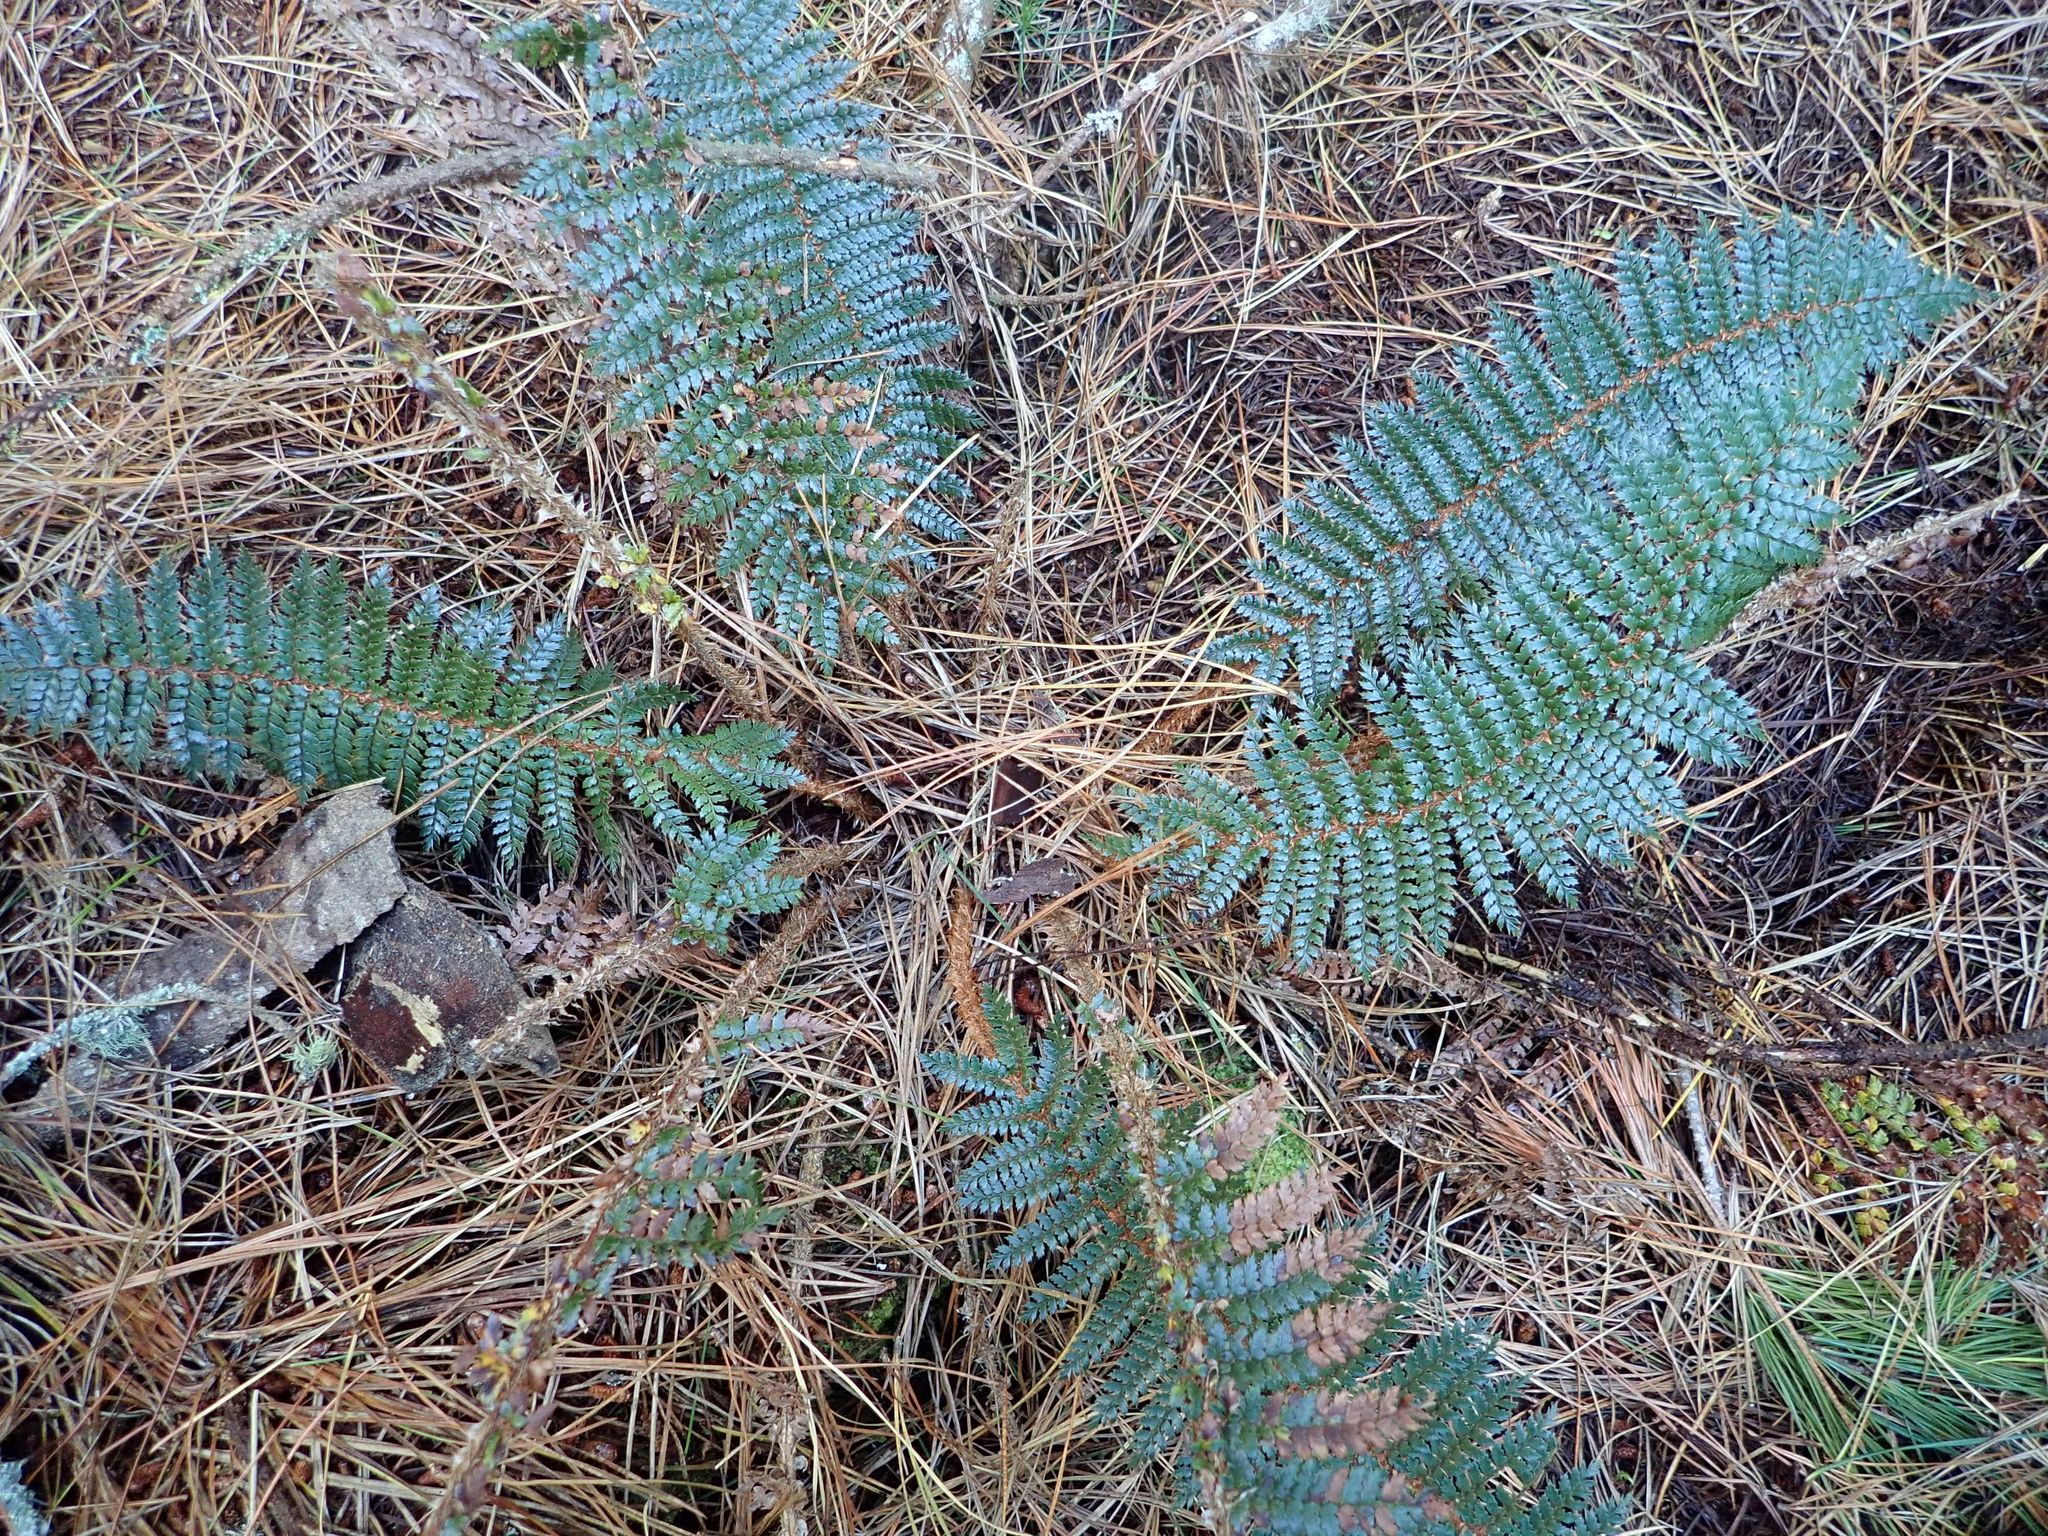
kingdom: Plantae
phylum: Tracheophyta
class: Polypodiopsida
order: Polypodiales
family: Dryopteridaceae
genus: Polystichum
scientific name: Polystichum vestitum
